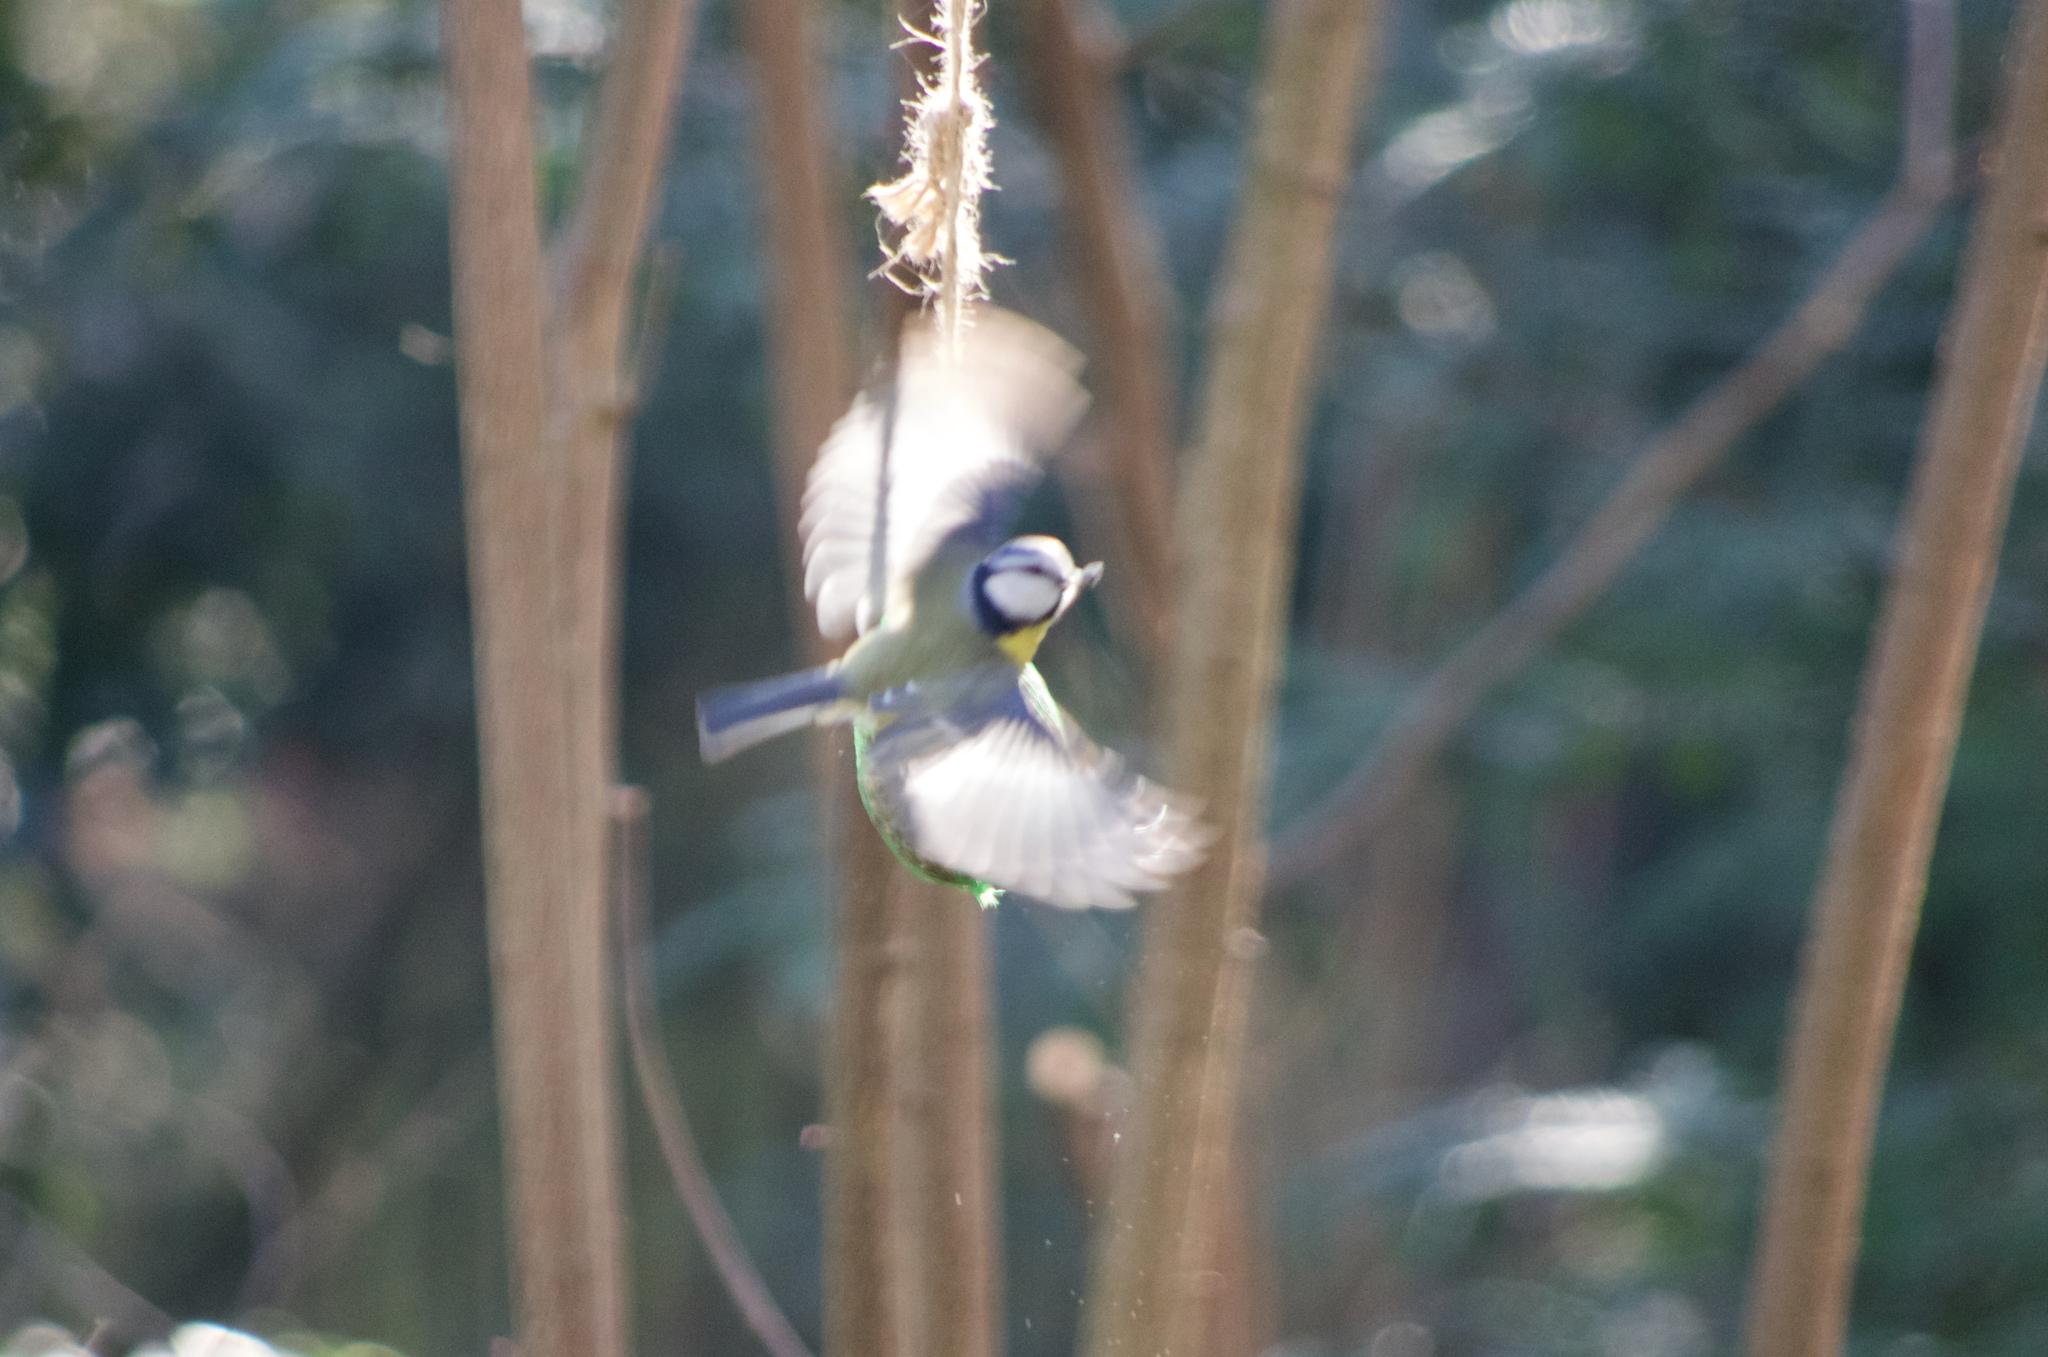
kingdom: Animalia
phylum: Chordata
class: Aves
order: Passeriformes
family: Paridae
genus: Cyanistes
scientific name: Cyanistes caeruleus
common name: Eurasian blue tit
